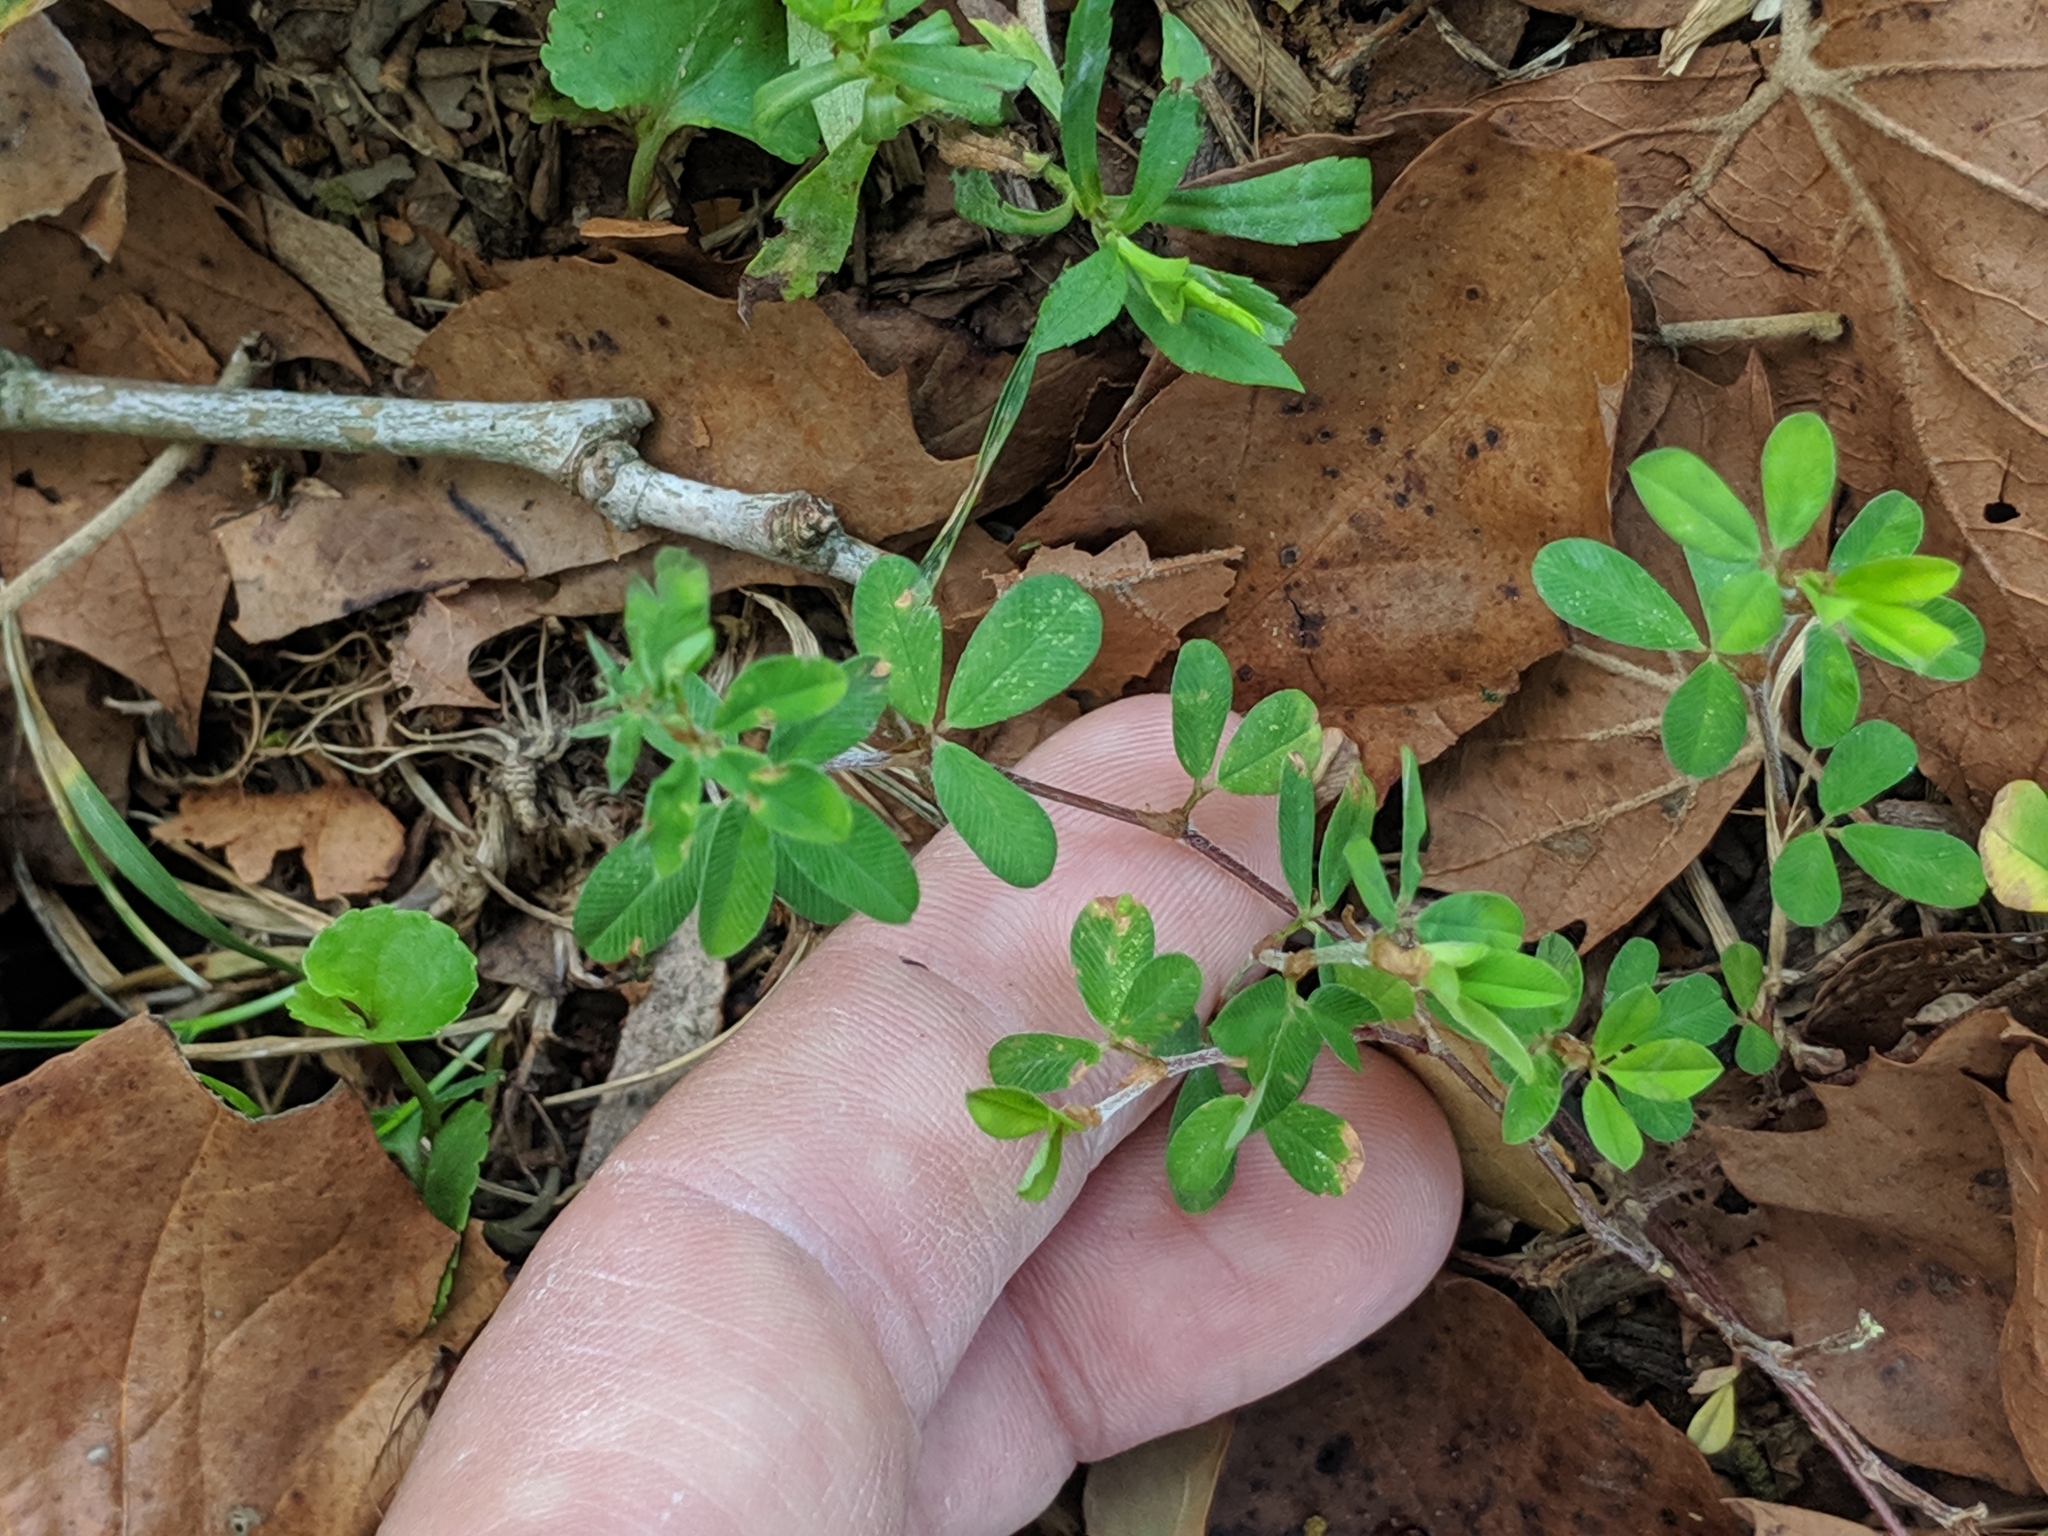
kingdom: Plantae
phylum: Tracheophyta
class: Magnoliopsida
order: Fabales
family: Fabaceae
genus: Kummerowia
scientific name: Kummerowia striata
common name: Japanese clover
